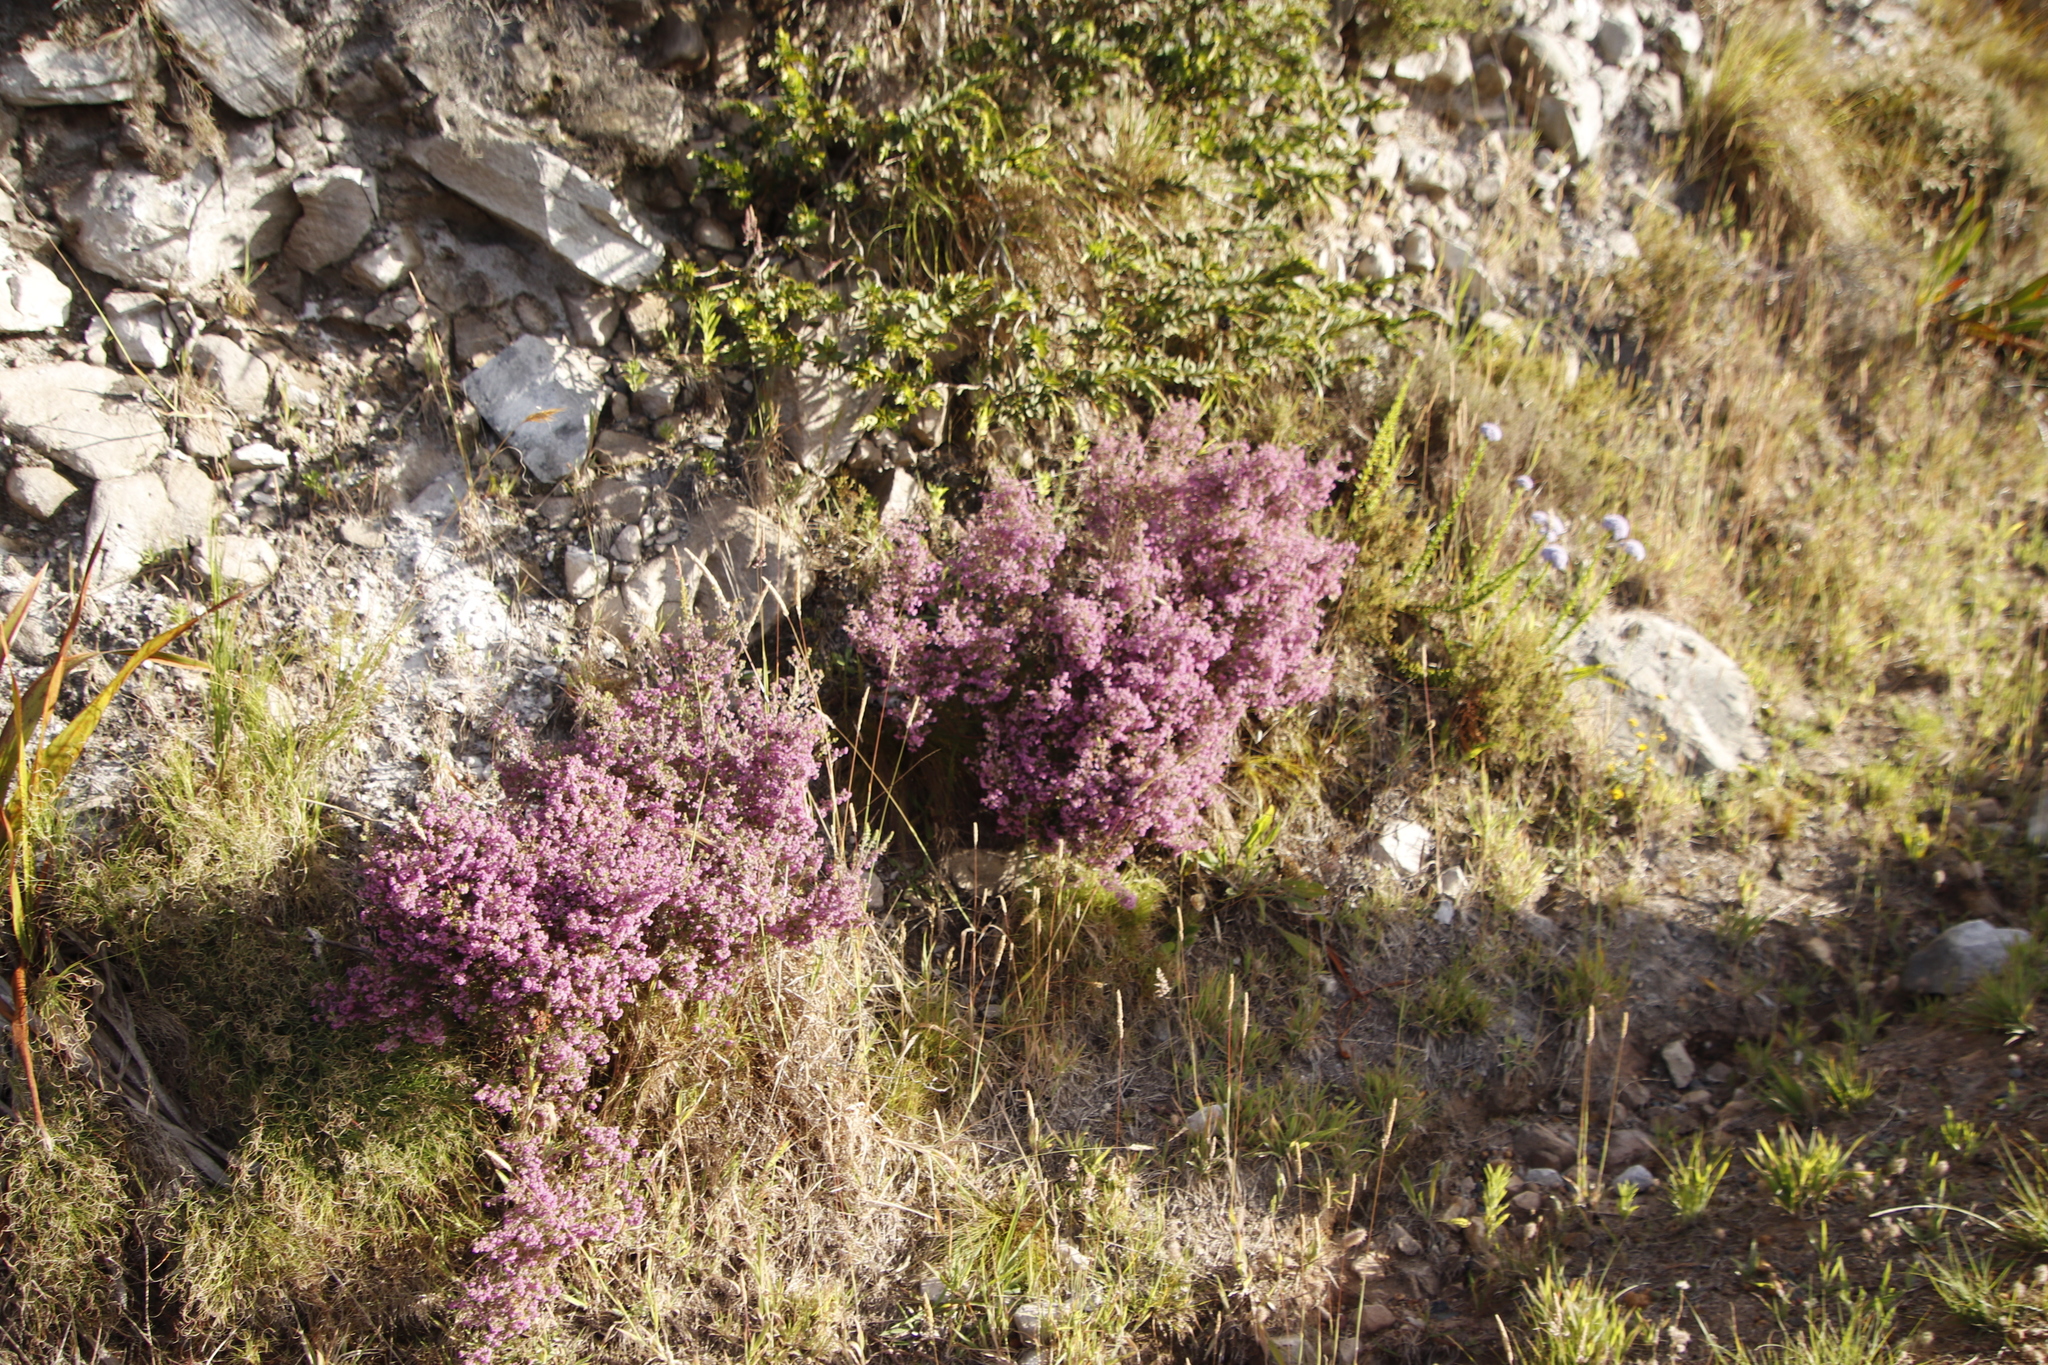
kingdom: Plantae
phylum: Tracheophyta
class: Magnoliopsida
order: Ericales
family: Ericaceae
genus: Erica
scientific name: Erica hirtiflora
